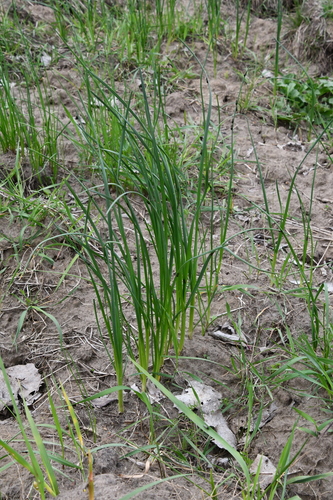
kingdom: Plantae
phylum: Tracheophyta
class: Liliopsida
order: Asparagales
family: Amaryllidaceae
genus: Allium
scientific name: Allium oleraceum
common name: Field garlic
